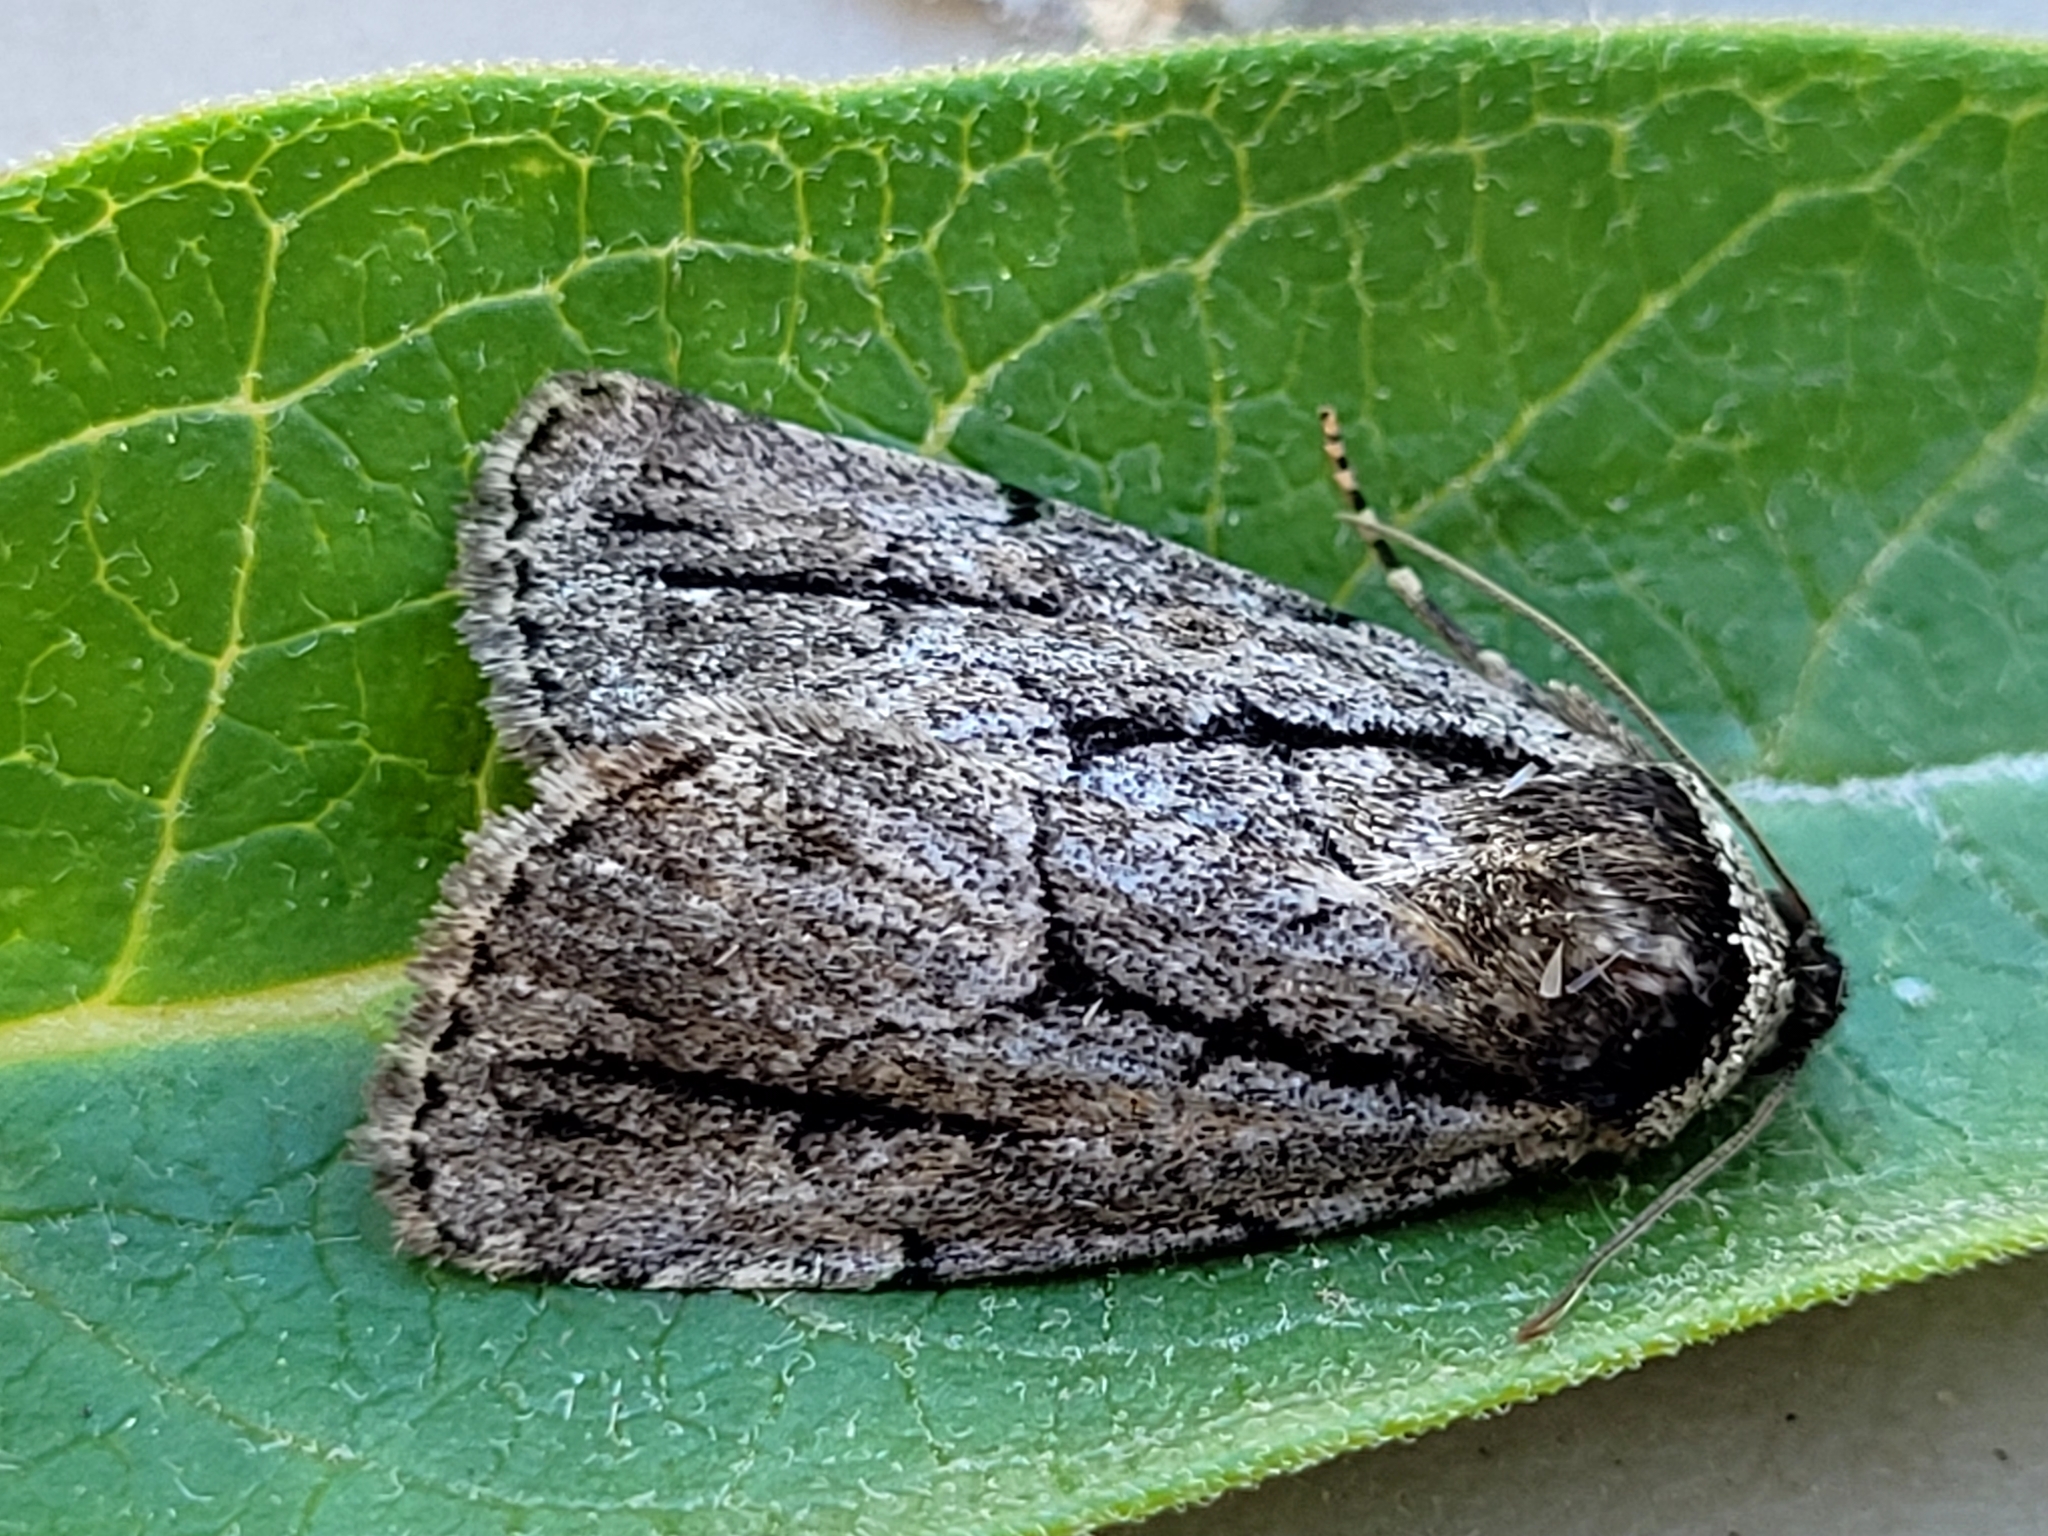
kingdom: Animalia
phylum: Arthropoda
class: Insecta
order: Lepidoptera
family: Noctuidae
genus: Sympistis
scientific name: Sympistis dinalda
